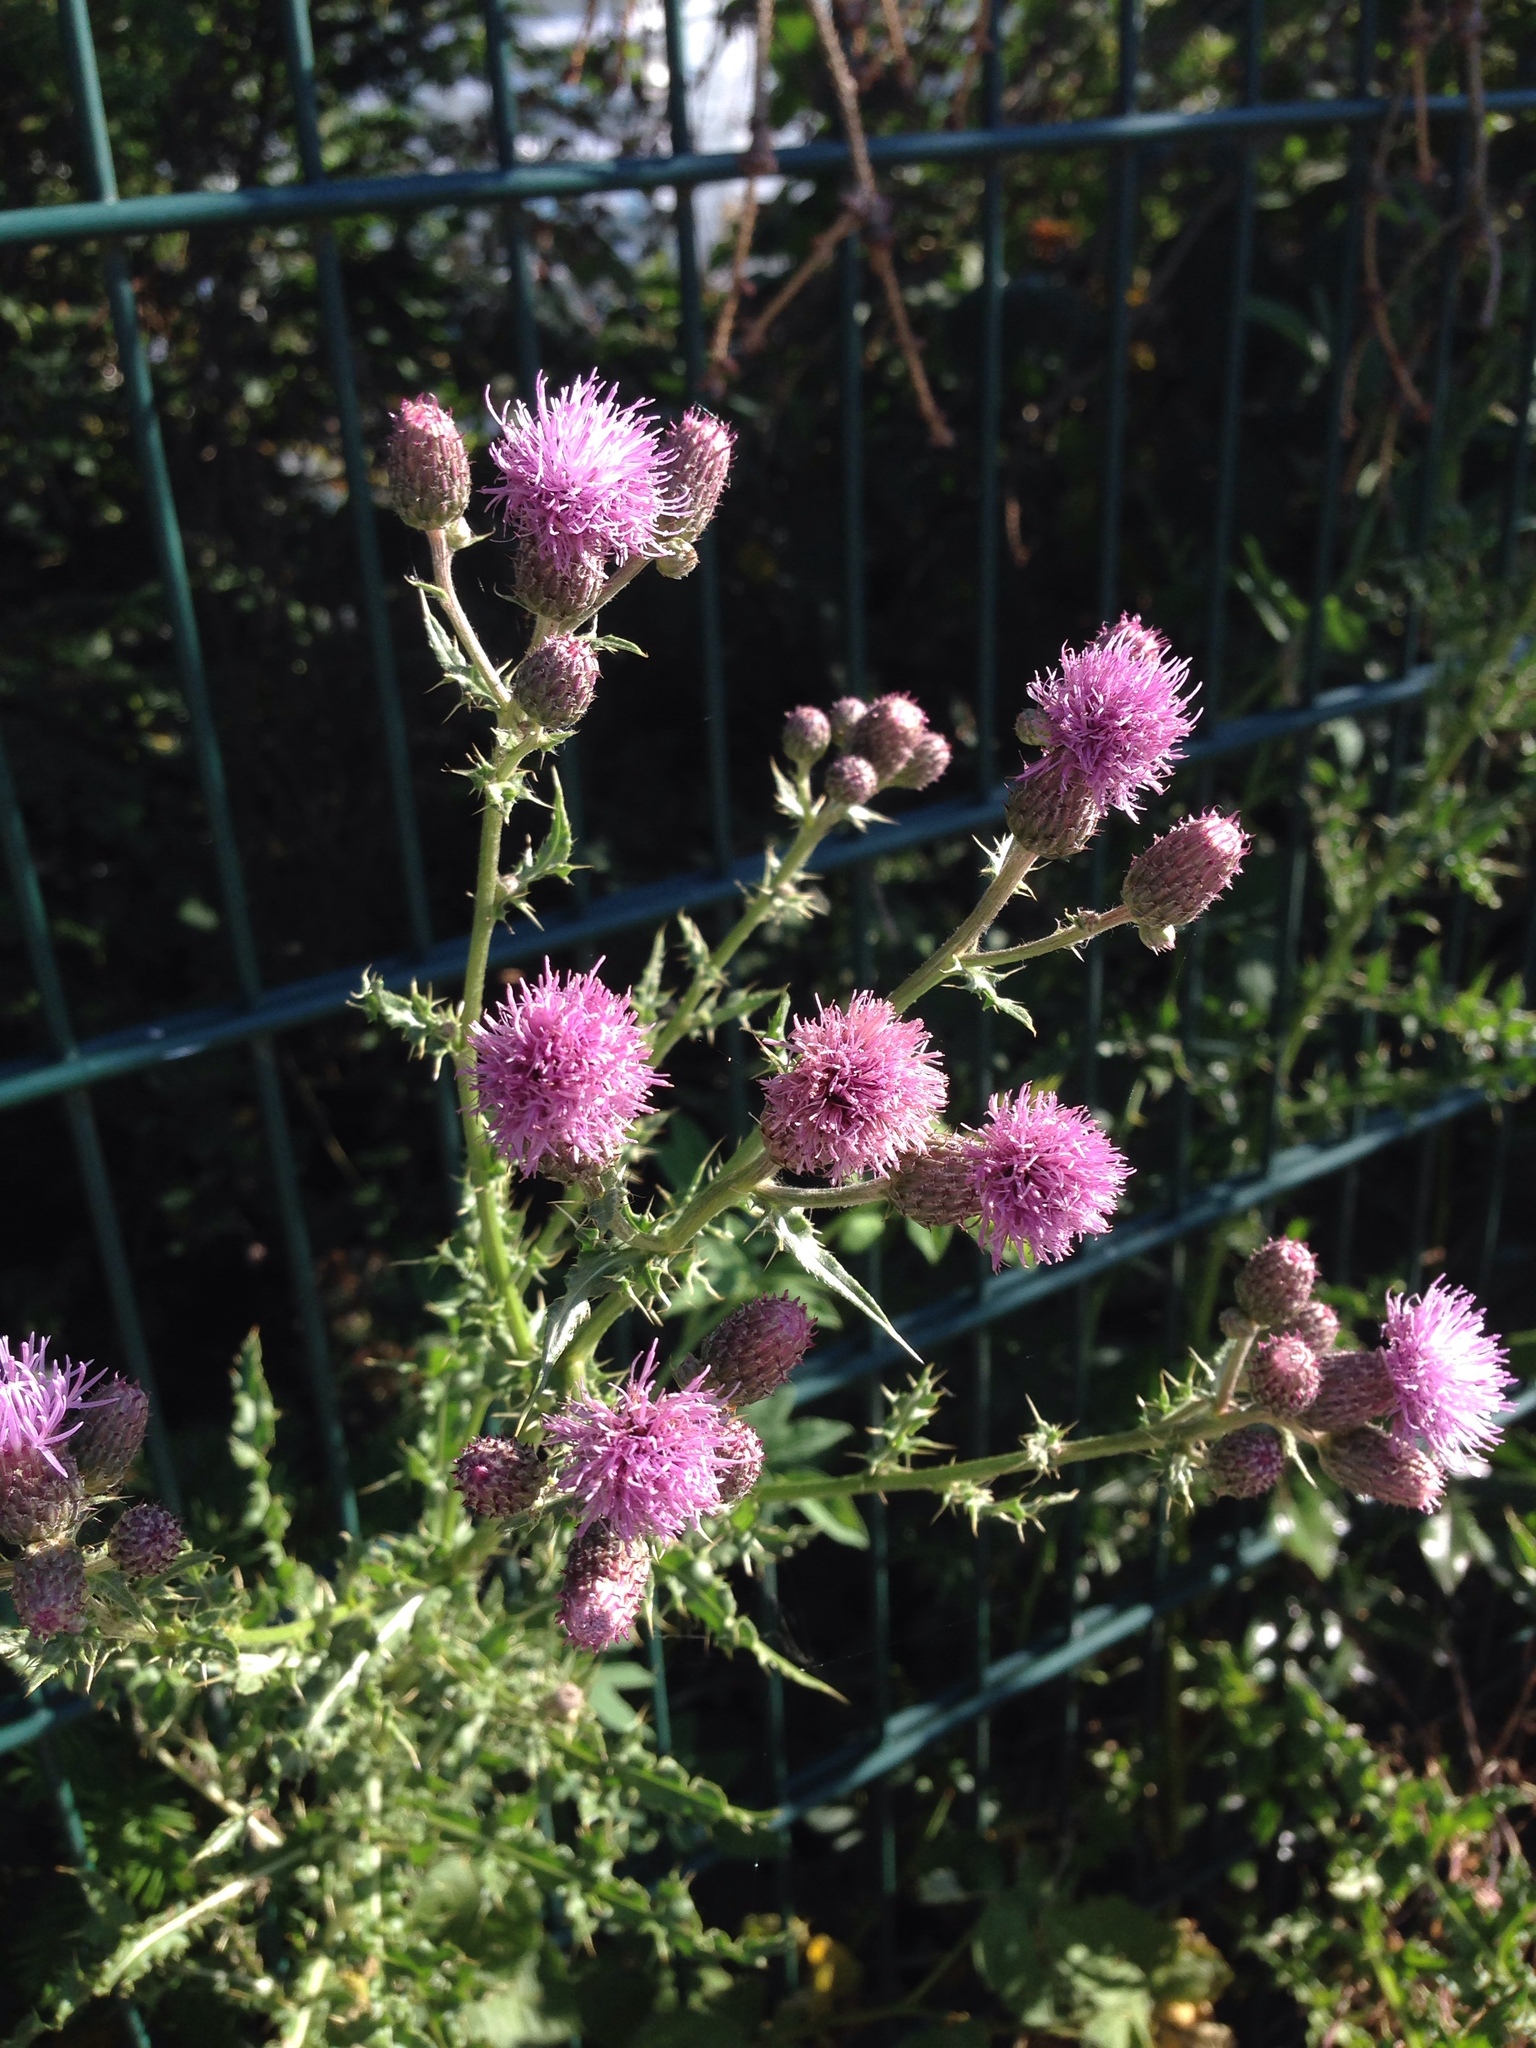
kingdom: Plantae
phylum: Tracheophyta
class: Magnoliopsida
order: Asterales
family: Asteraceae
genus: Cirsium
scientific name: Cirsium arvense
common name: Creeping thistle
